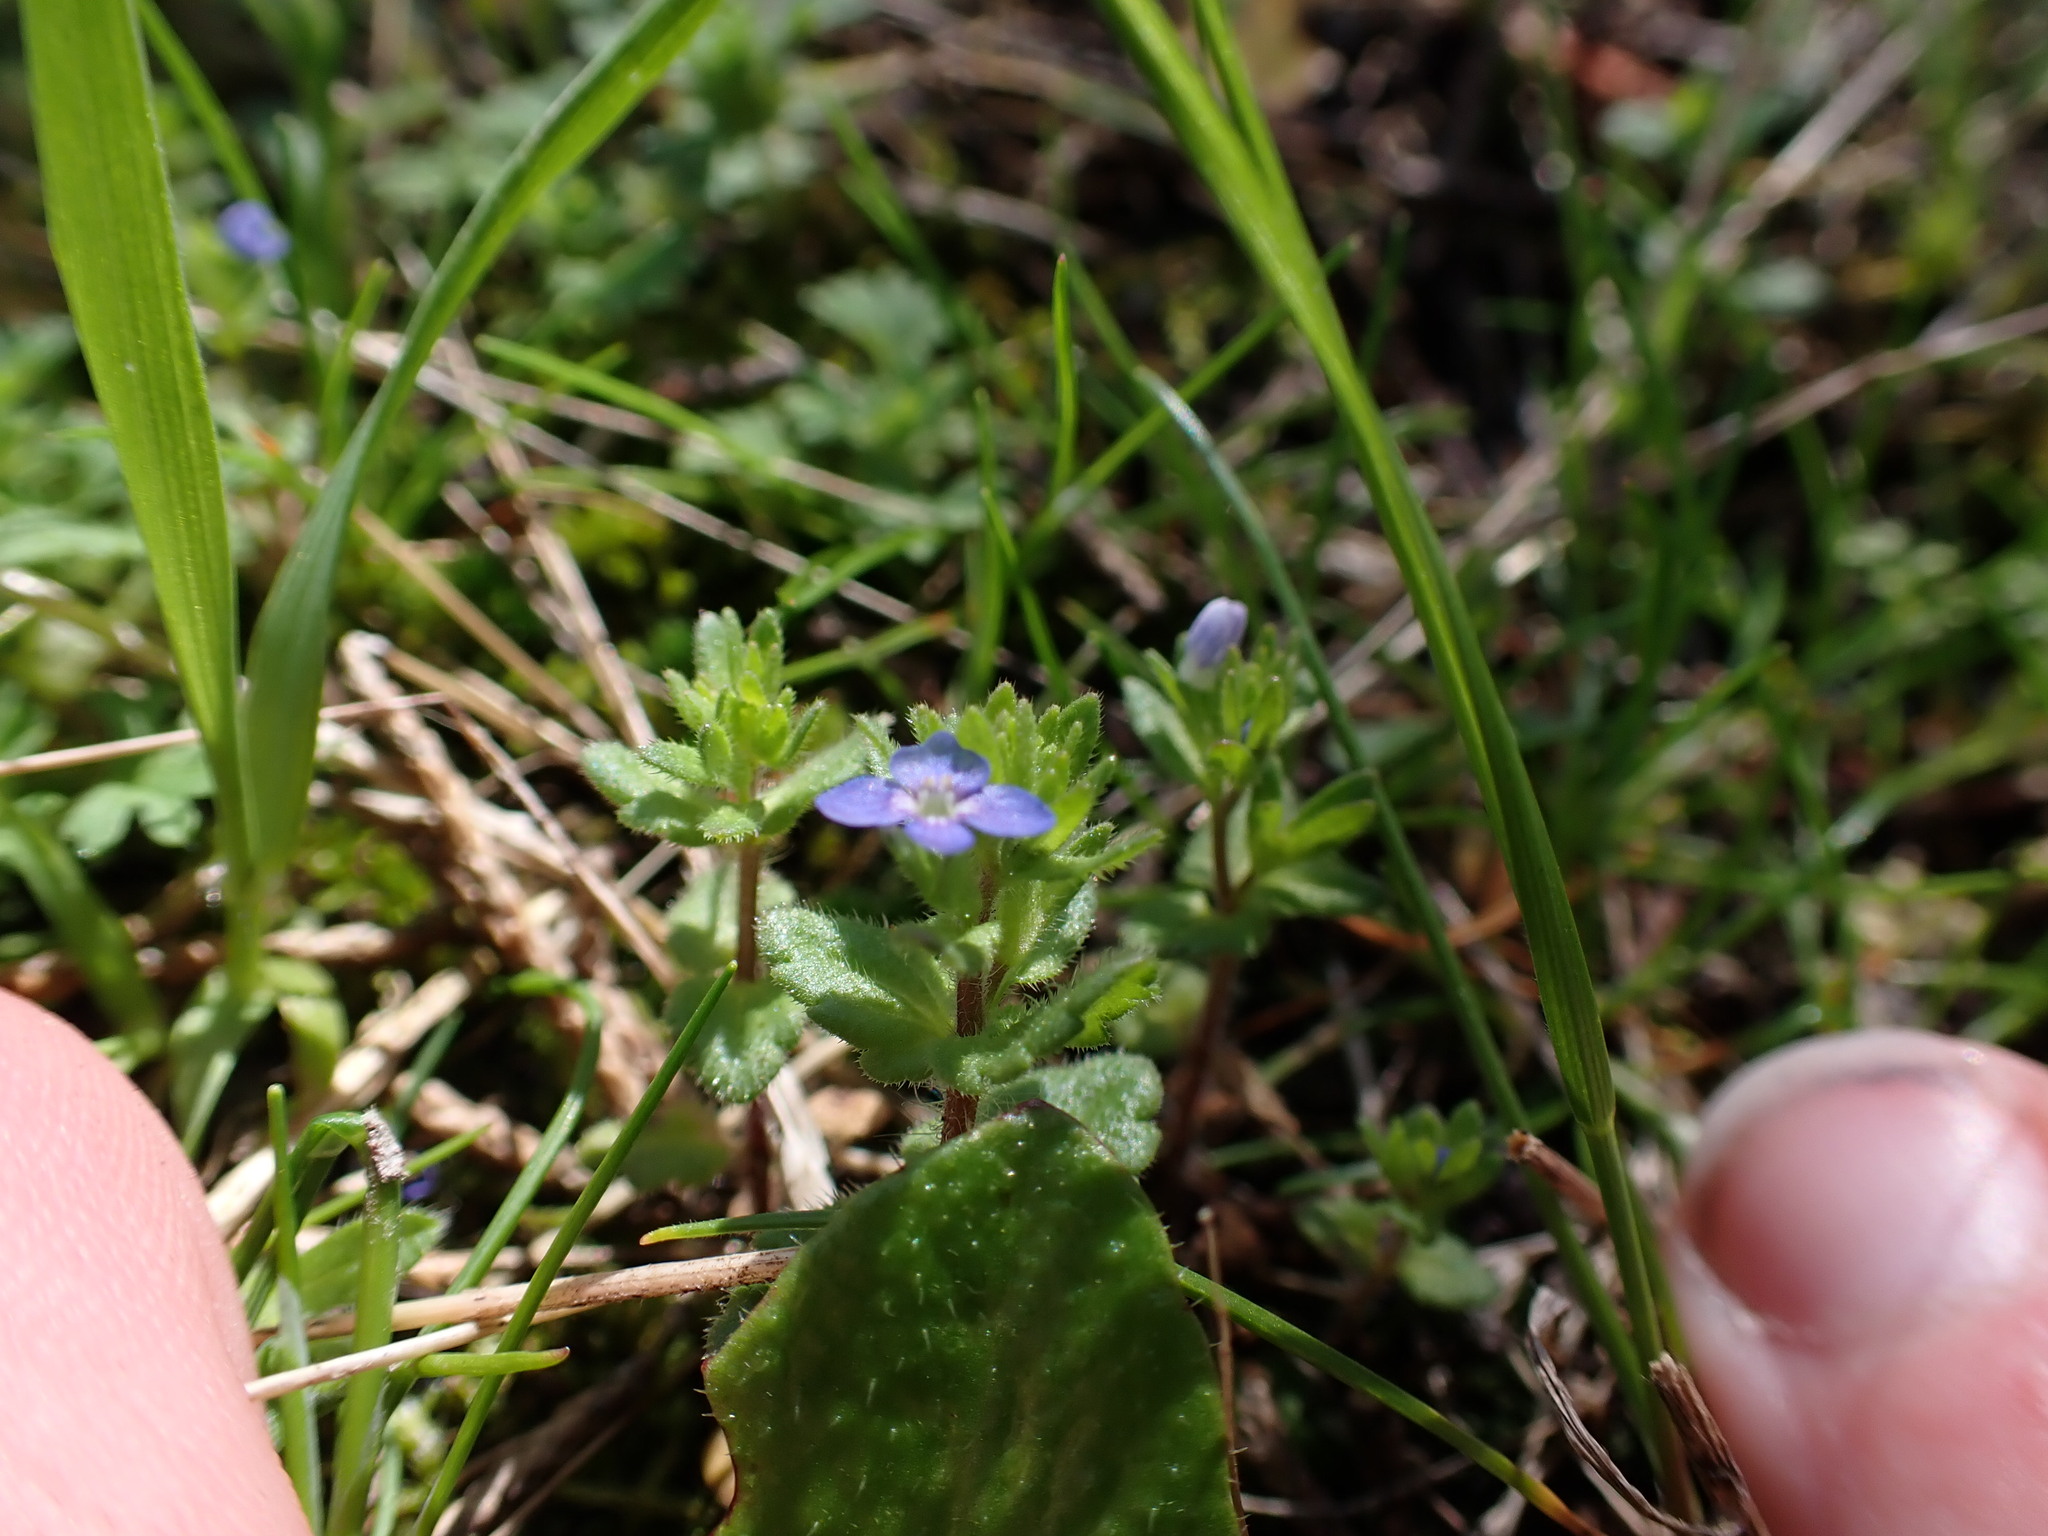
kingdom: Plantae
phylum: Tracheophyta
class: Magnoliopsida
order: Lamiales
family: Plantaginaceae
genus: Veronica
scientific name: Veronica arvensis
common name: Corn speedwell
